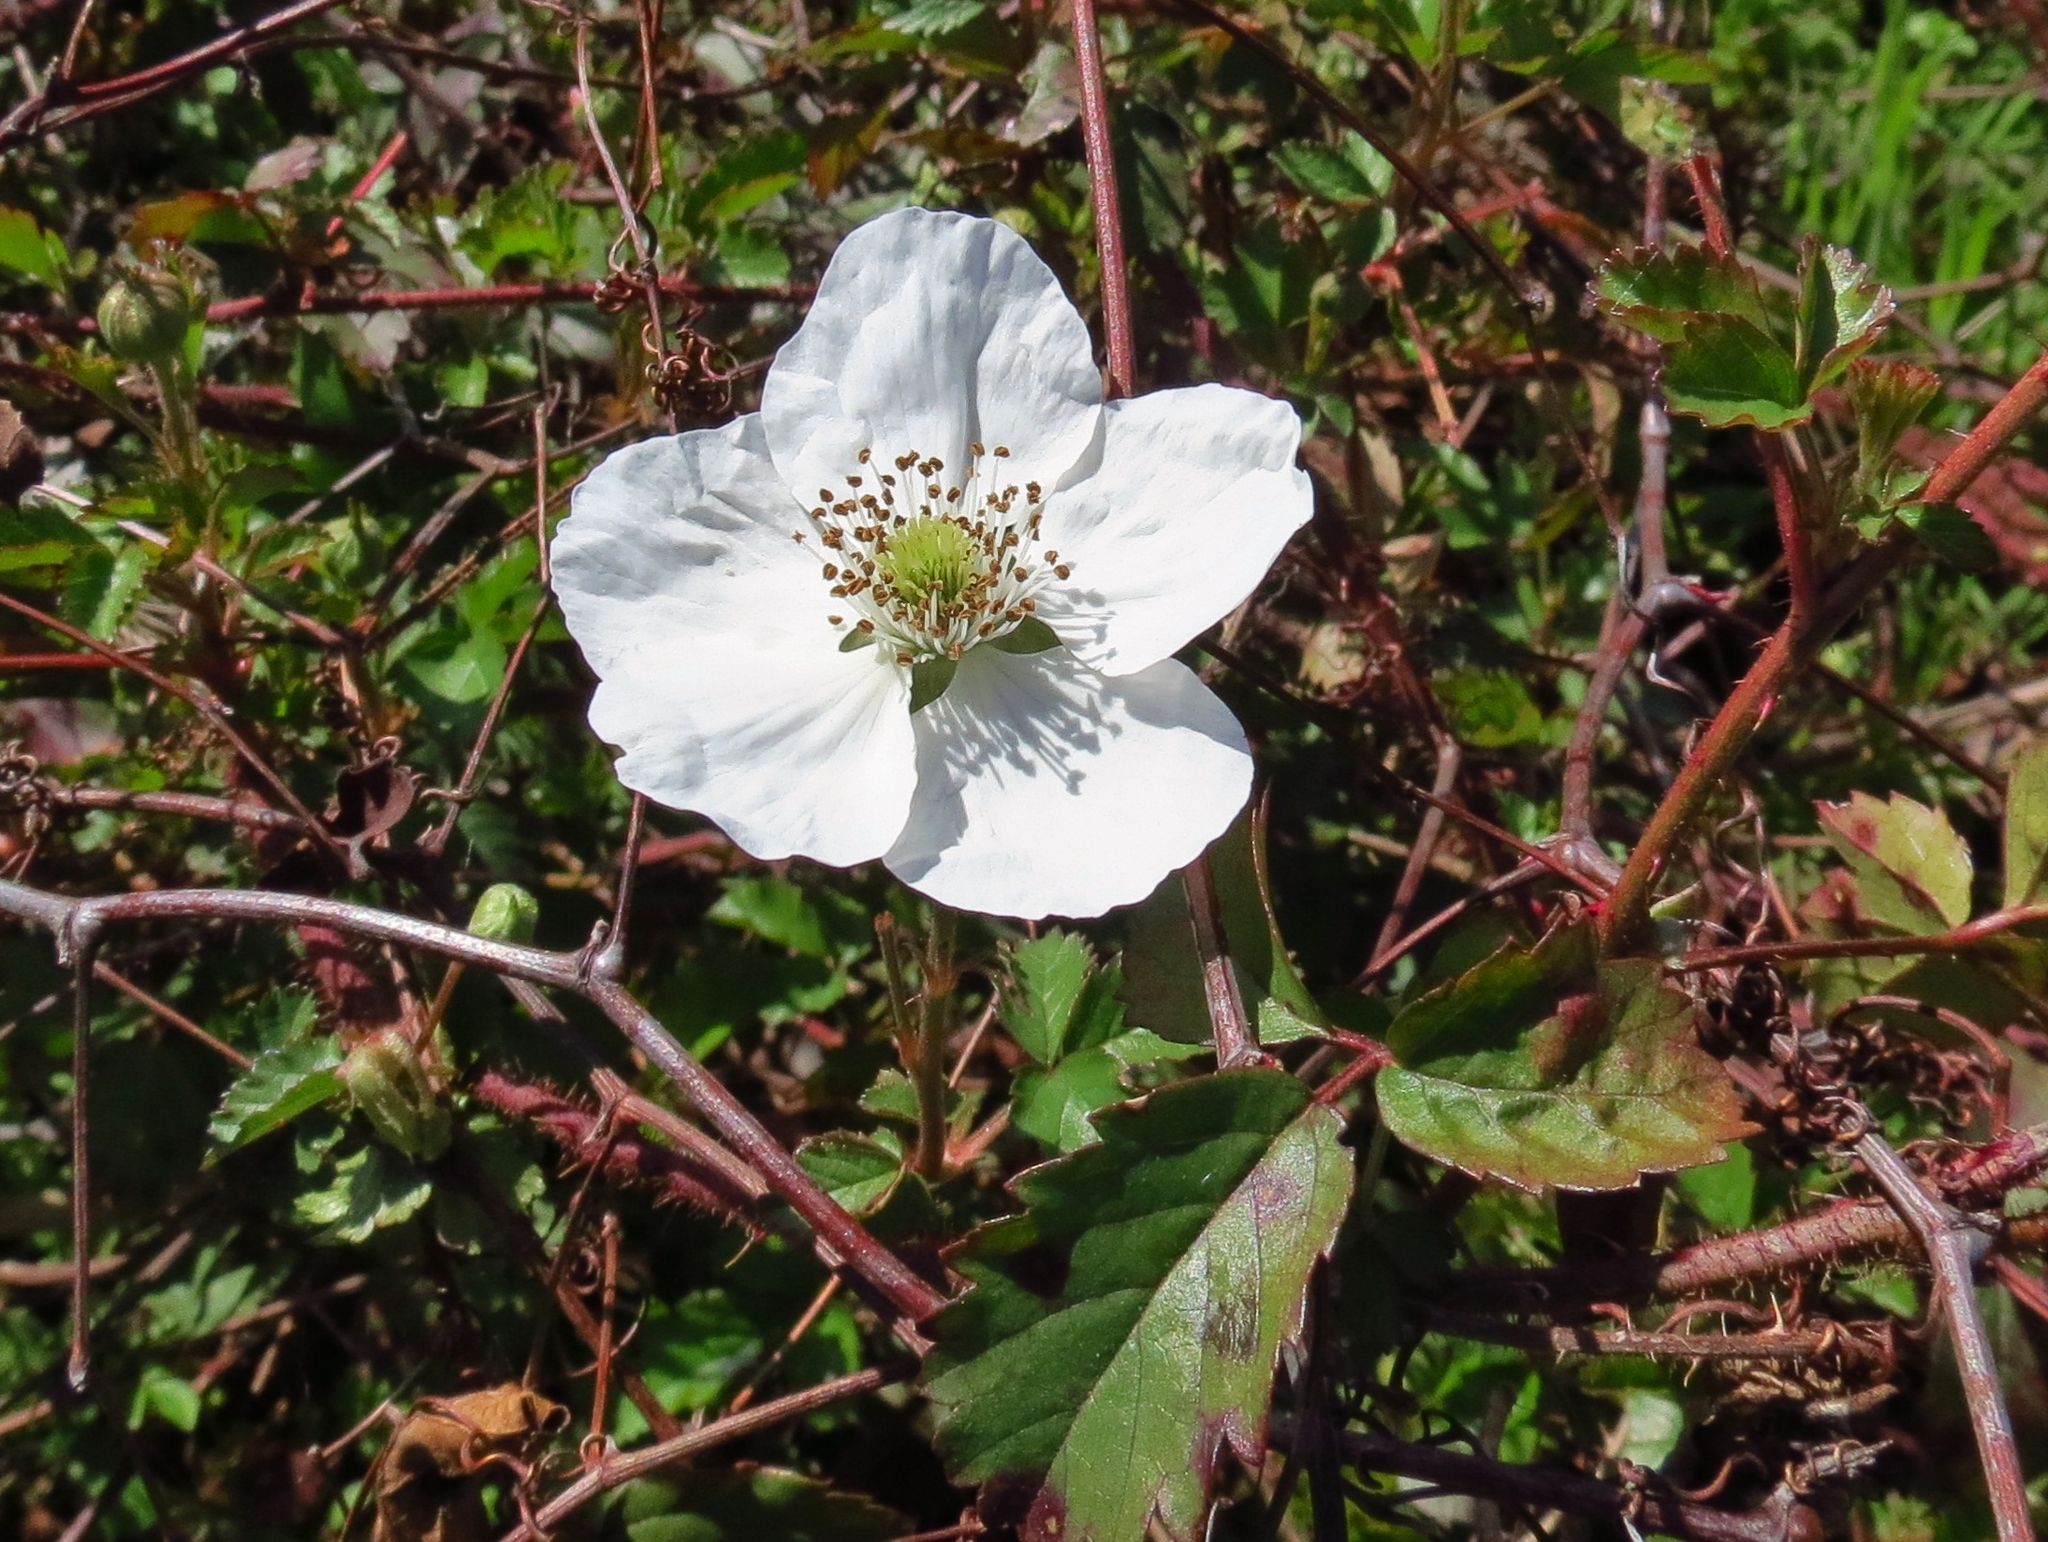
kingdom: Plantae
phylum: Tracheophyta
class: Magnoliopsida
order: Rosales
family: Rosaceae
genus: Rubus
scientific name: Rubus trivialis
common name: Southern dewberry
